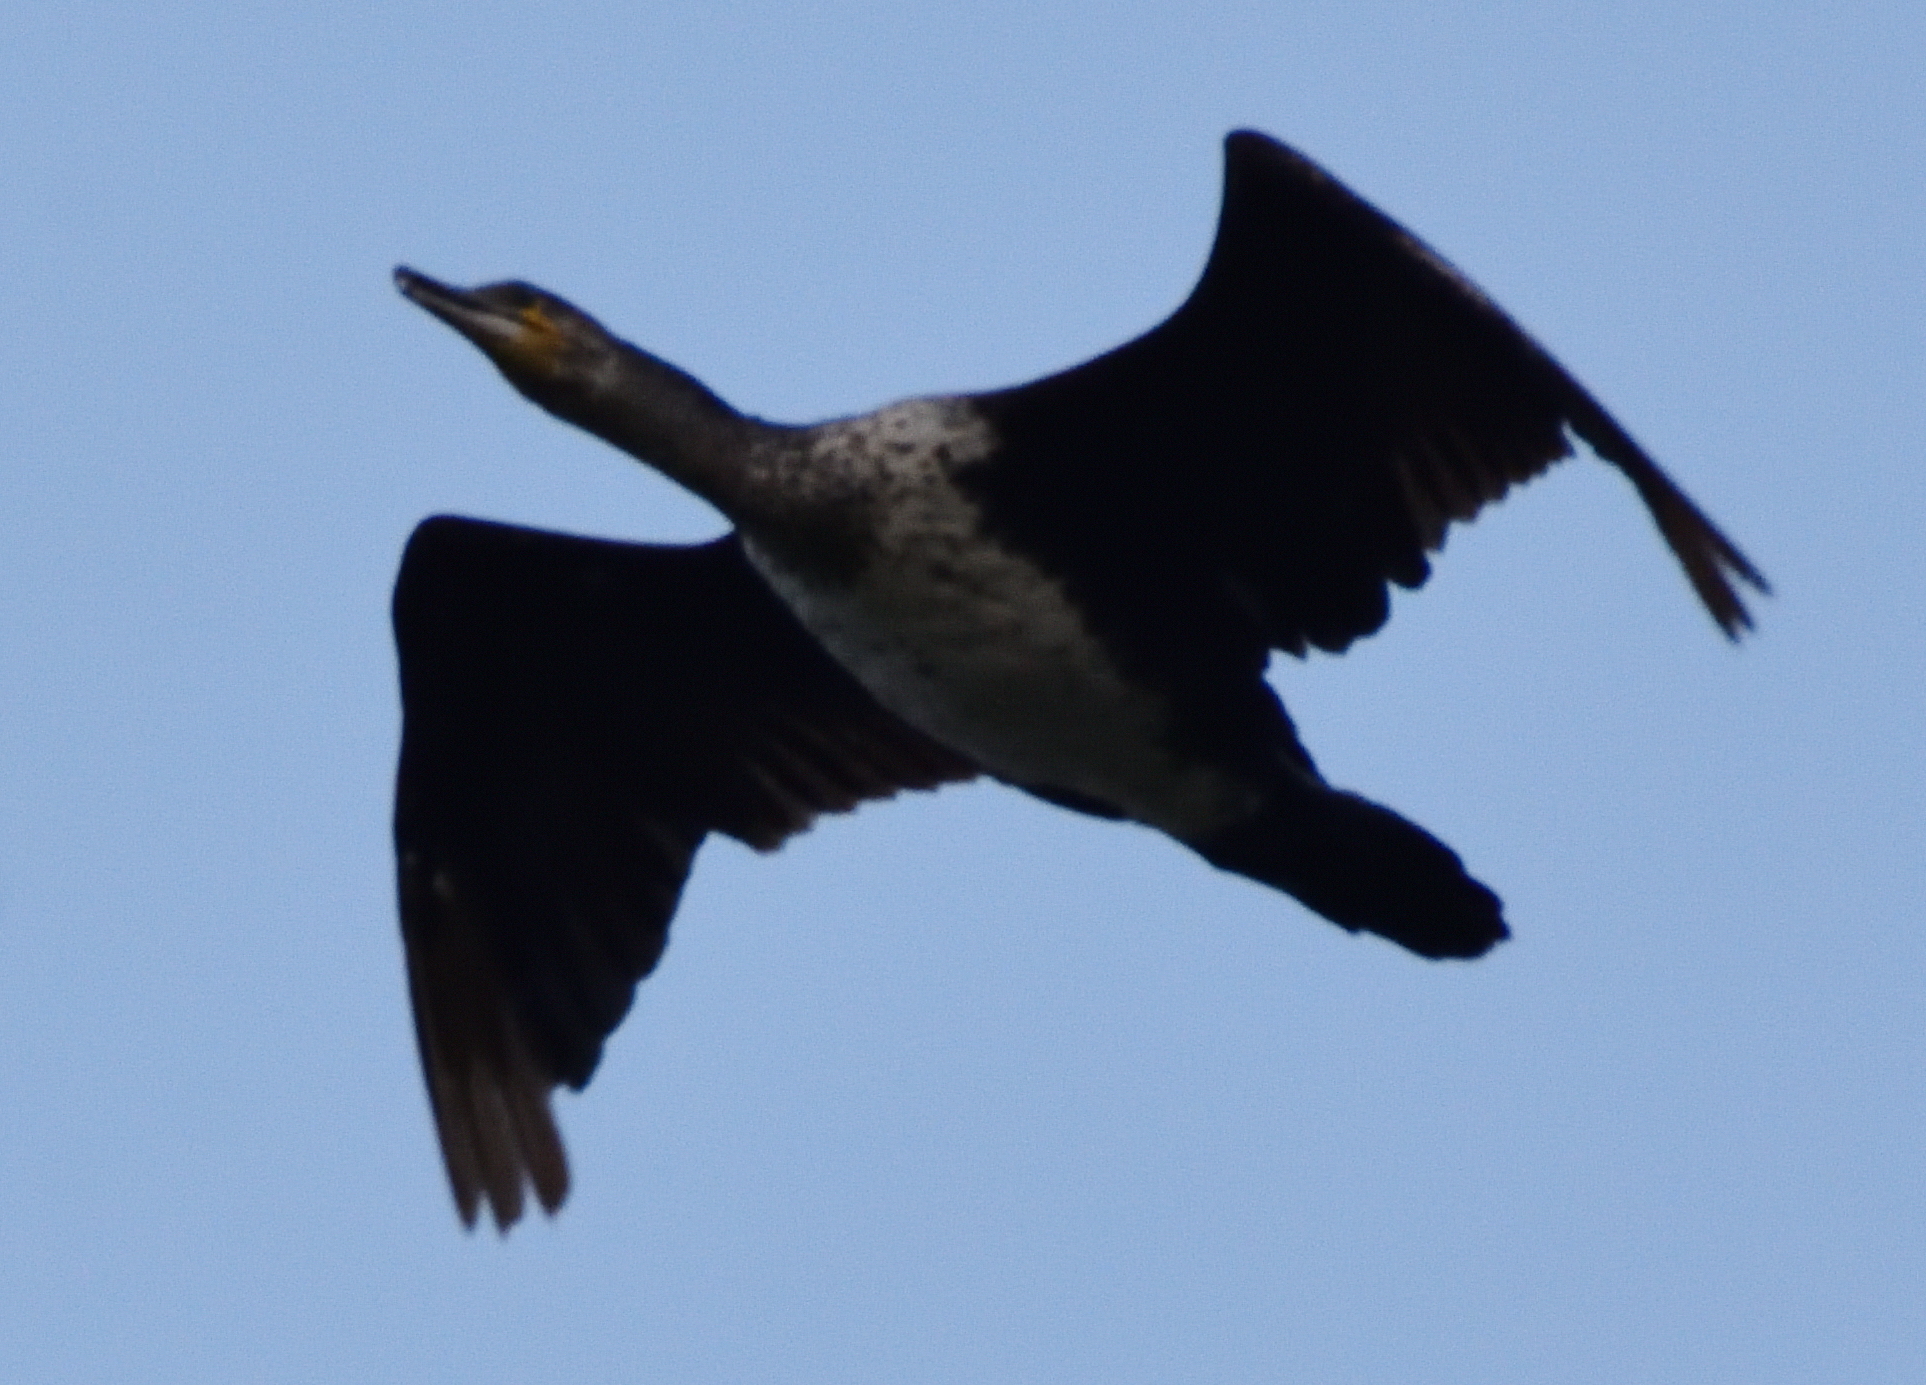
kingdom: Animalia
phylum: Chordata
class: Aves
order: Suliformes
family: Phalacrocoracidae
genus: Phalacrocorax
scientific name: Phalacrocorax carbo
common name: Great cormorant
